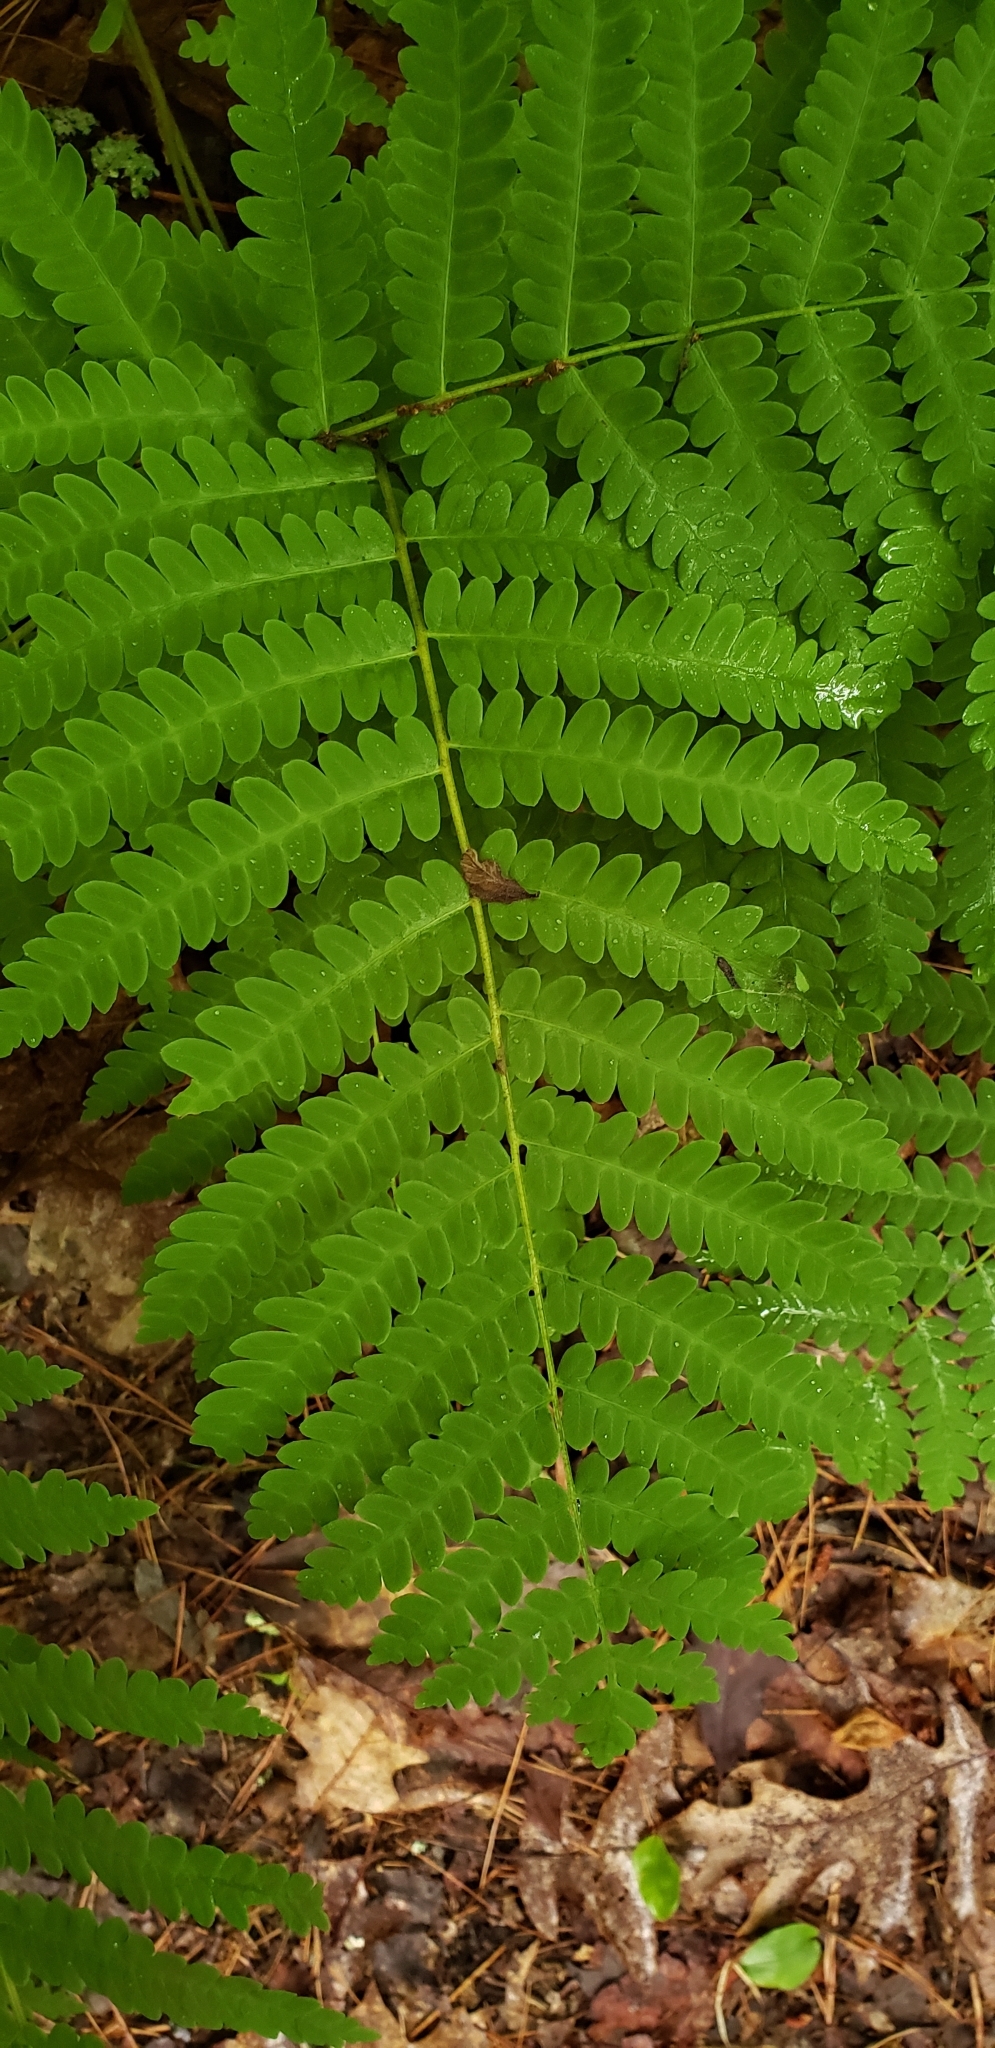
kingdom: Plantae
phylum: Tracheophyta
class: Polypodiopsida
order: Osmundales
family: Osmundaceae
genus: Claytosmunda
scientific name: Claytosmunda claytoniana
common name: Clayton's fern
